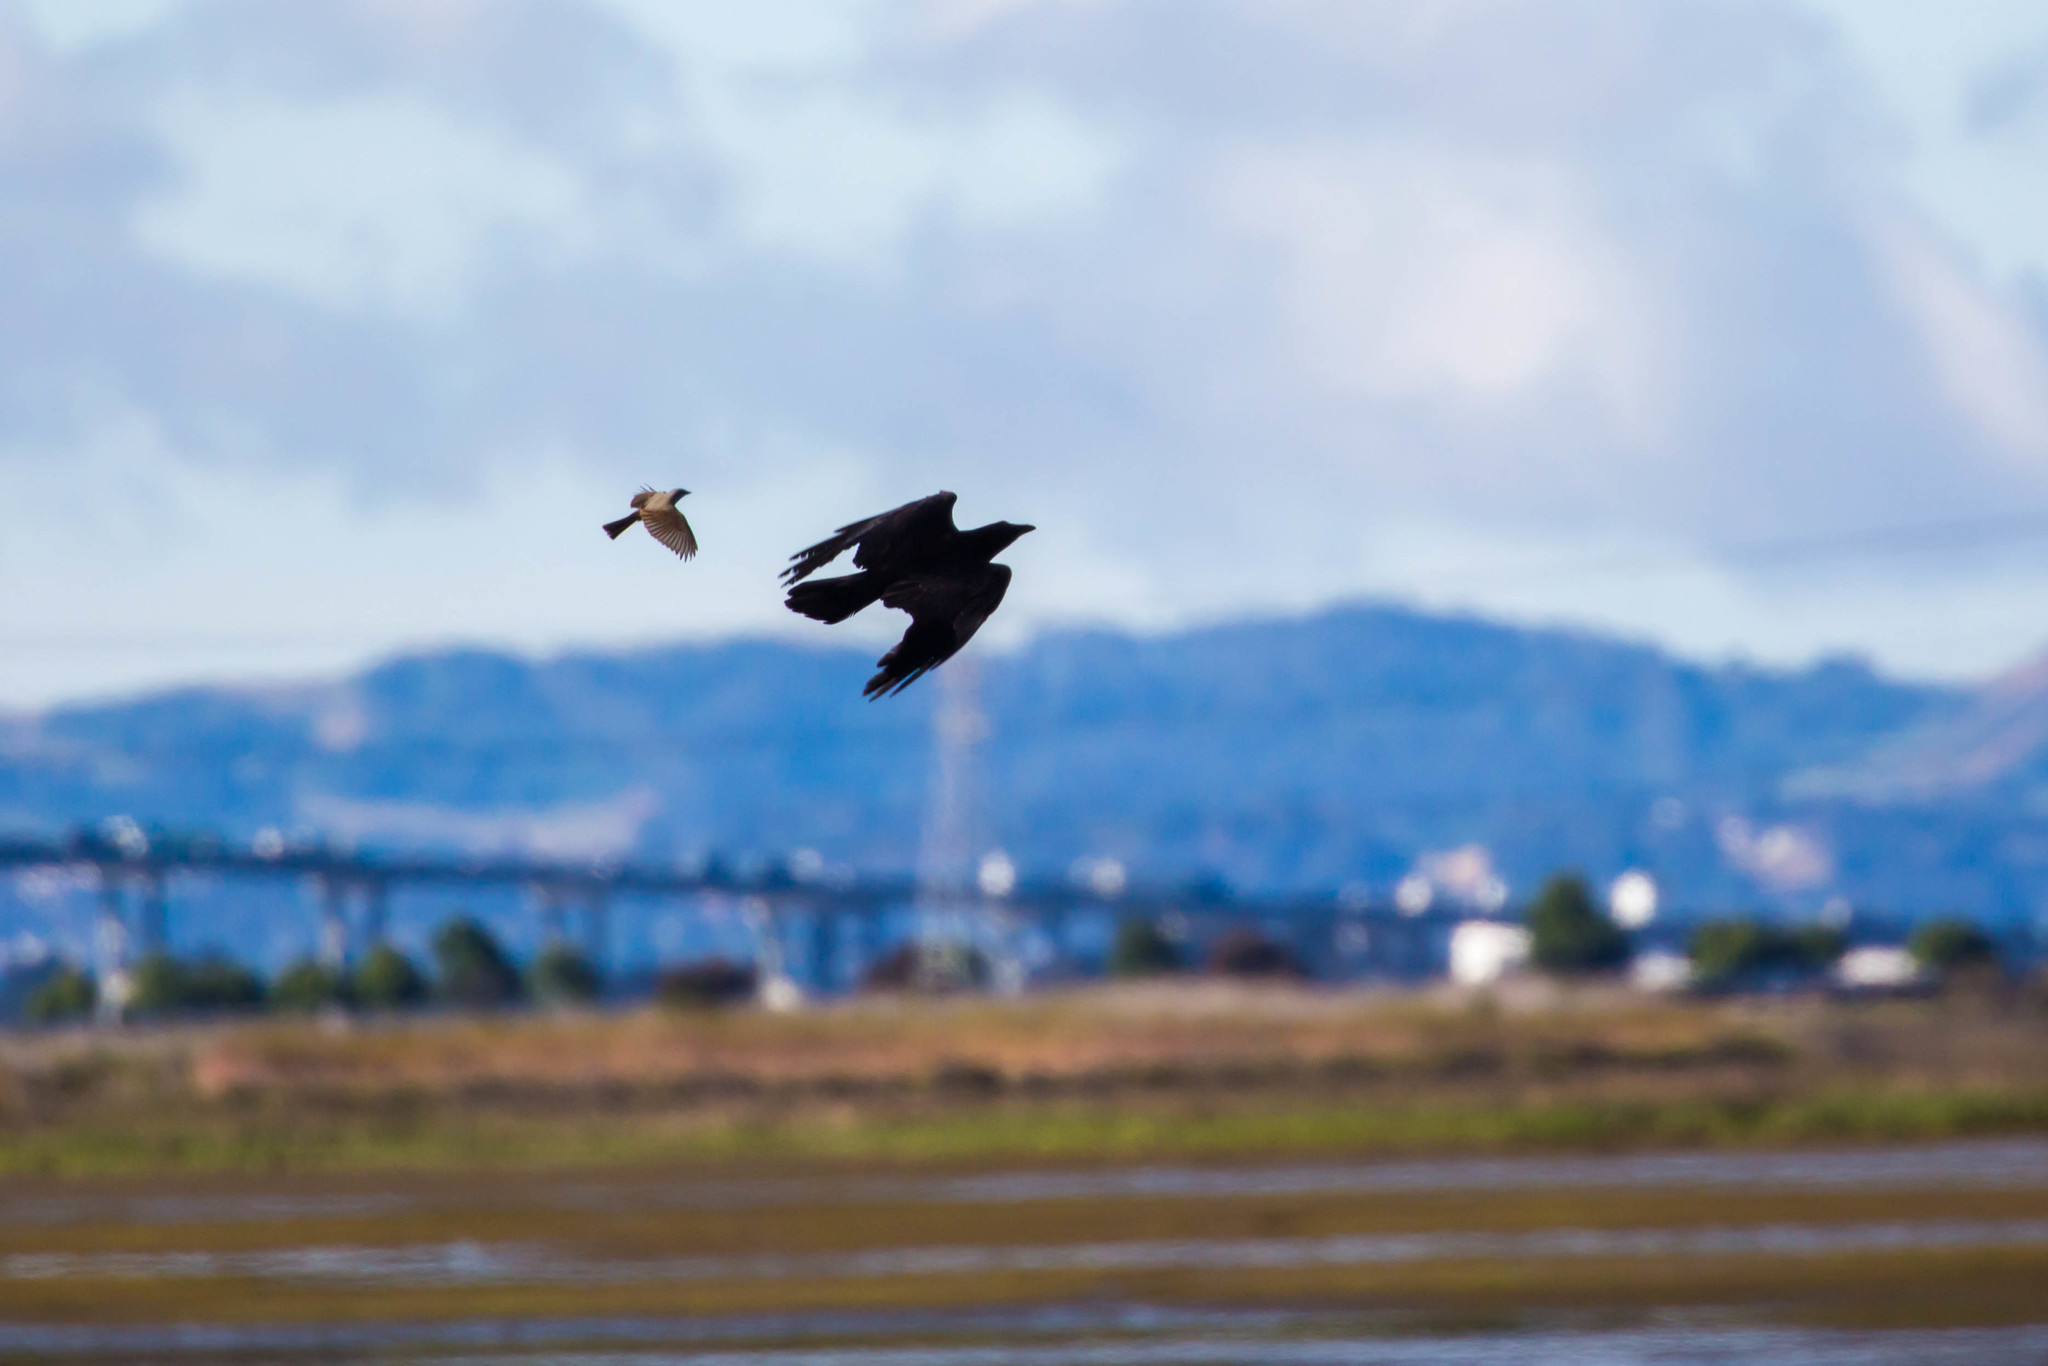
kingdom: Animalia
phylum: Chordata
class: Aves
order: Passeriformes
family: Corvidae
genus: Corvus
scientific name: Corvus corax
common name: Common raven
